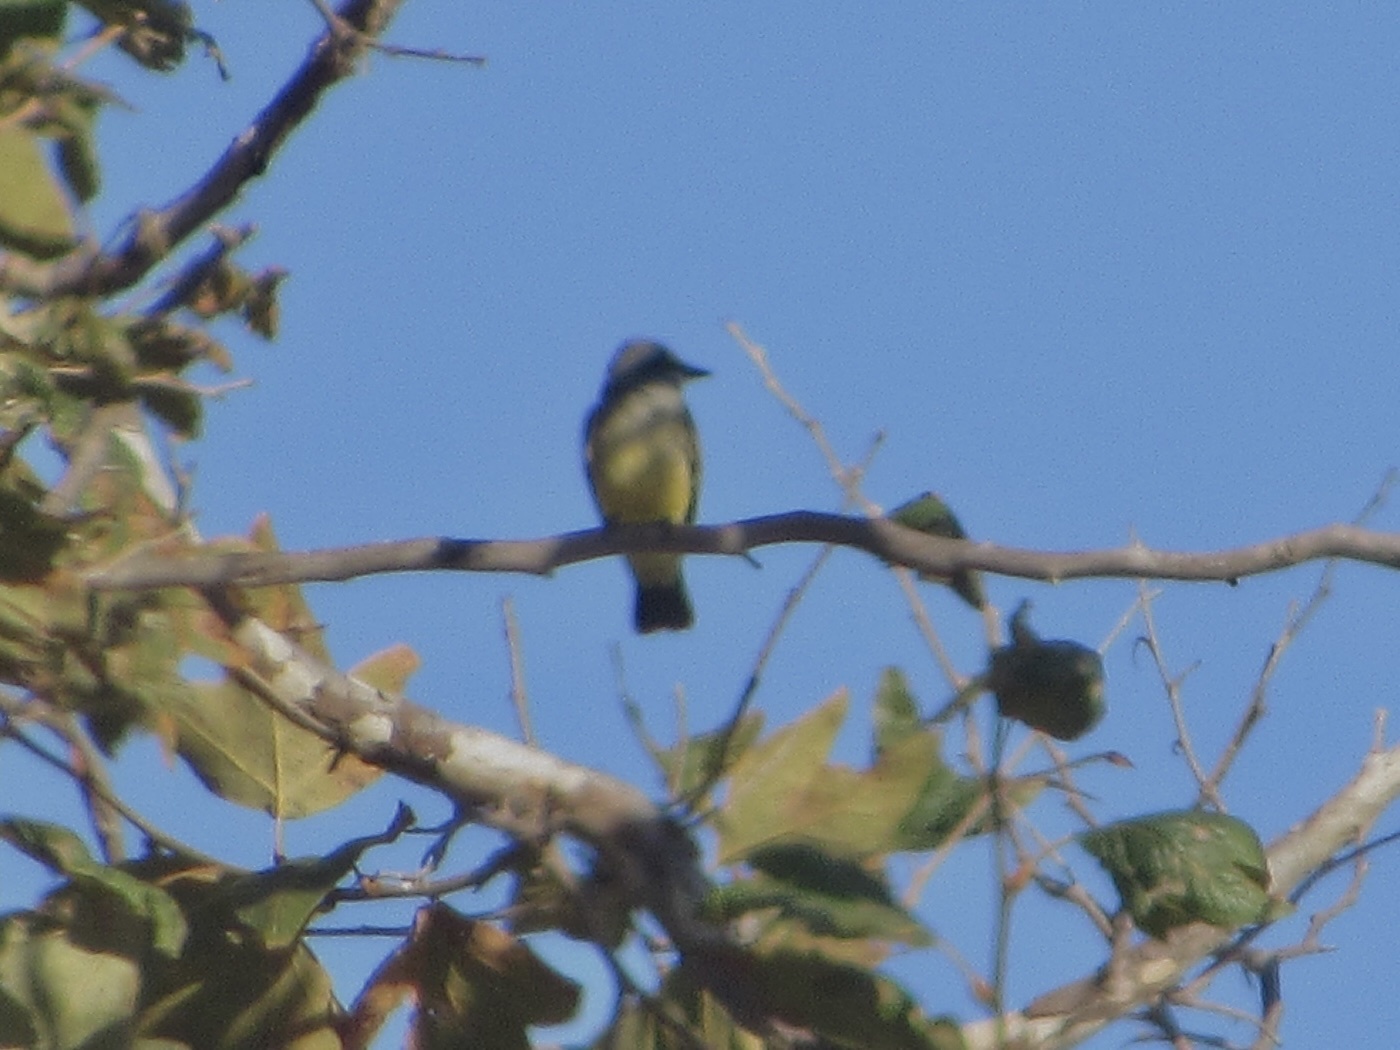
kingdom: Animalia
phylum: Chordata
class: Aves
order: Passeriformes
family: Tyrannidae
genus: Tyrannus
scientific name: Tyrannus vociferans
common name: Cassin's kingbird
